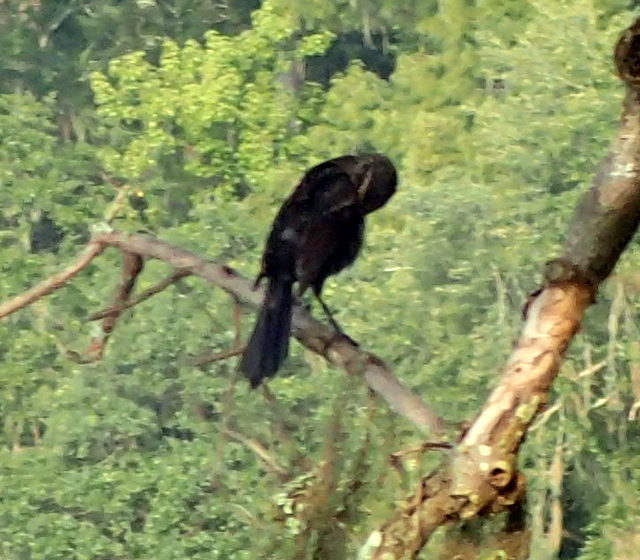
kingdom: Animalia
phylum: Chordata
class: Aves
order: Passeriformes
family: Icteridae
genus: Quiscalus
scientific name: Quiscalus major
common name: Boat-tailed grackle
